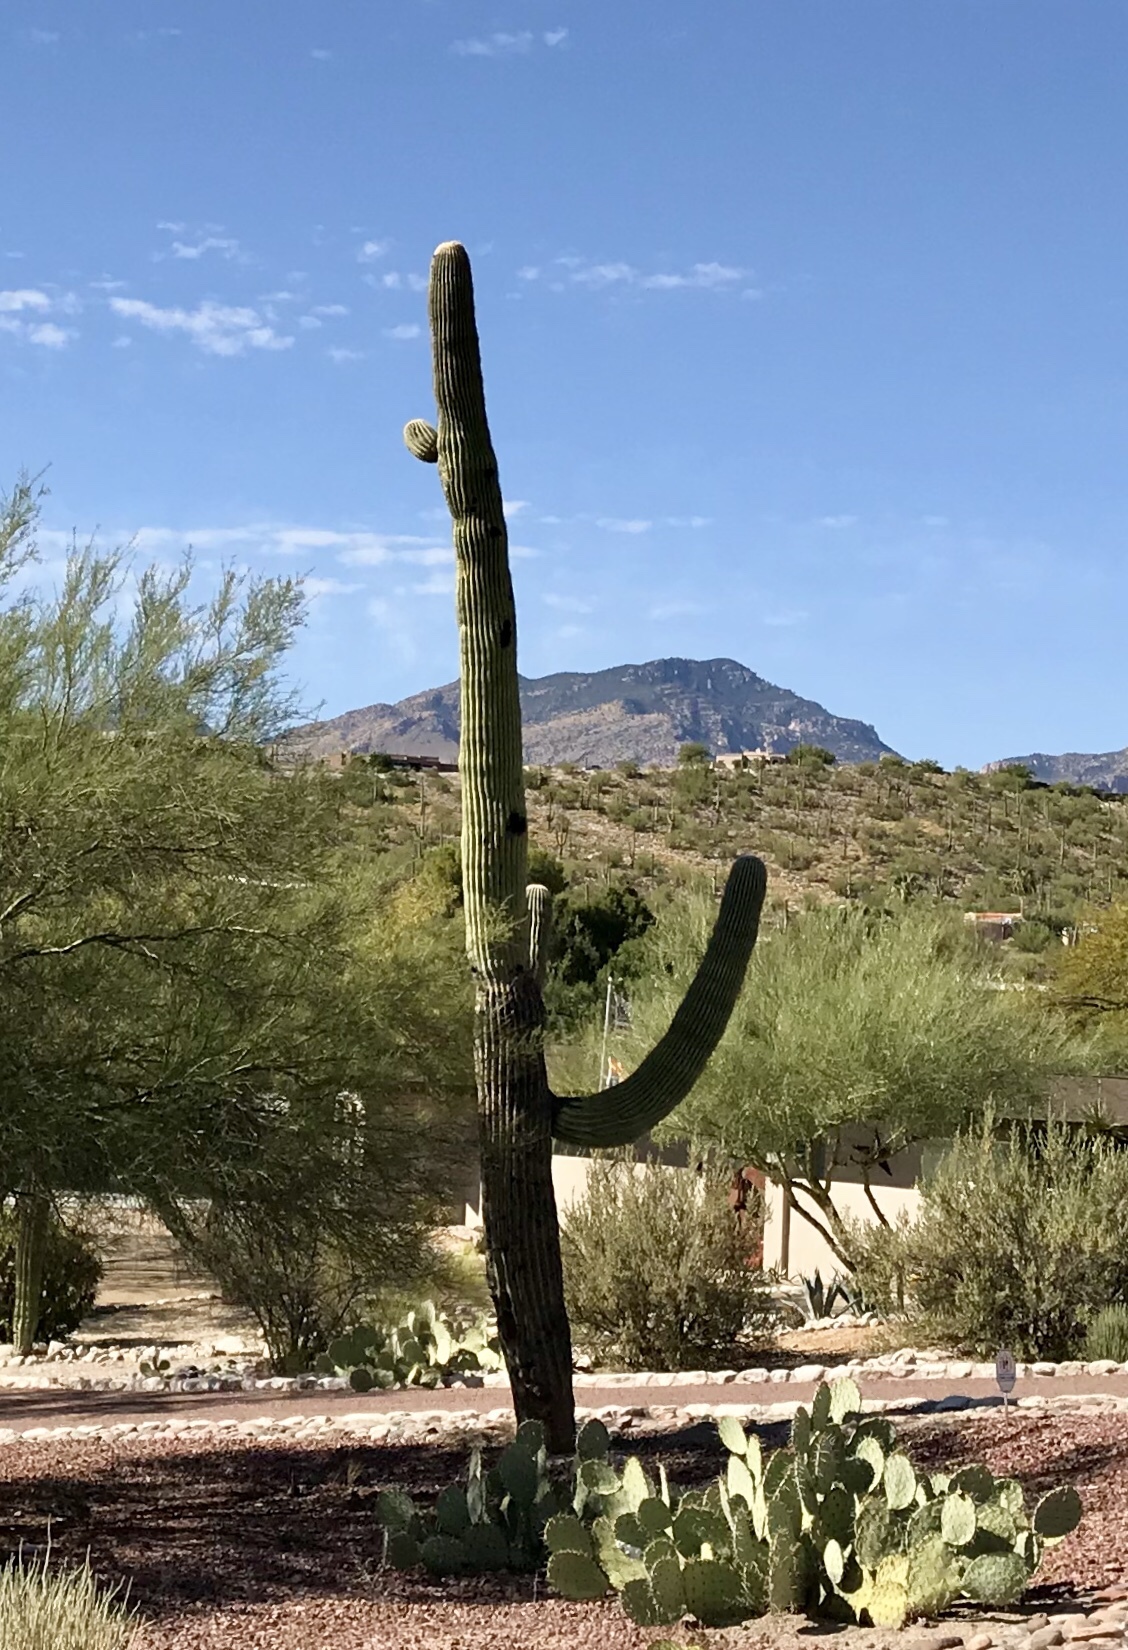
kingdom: Plantae
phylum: Tracheophyta
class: Magnoliopsida
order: Caryophyllales
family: Cactaceae
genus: Carnegiea
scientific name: Carnegiea gigantea
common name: Saguaro
